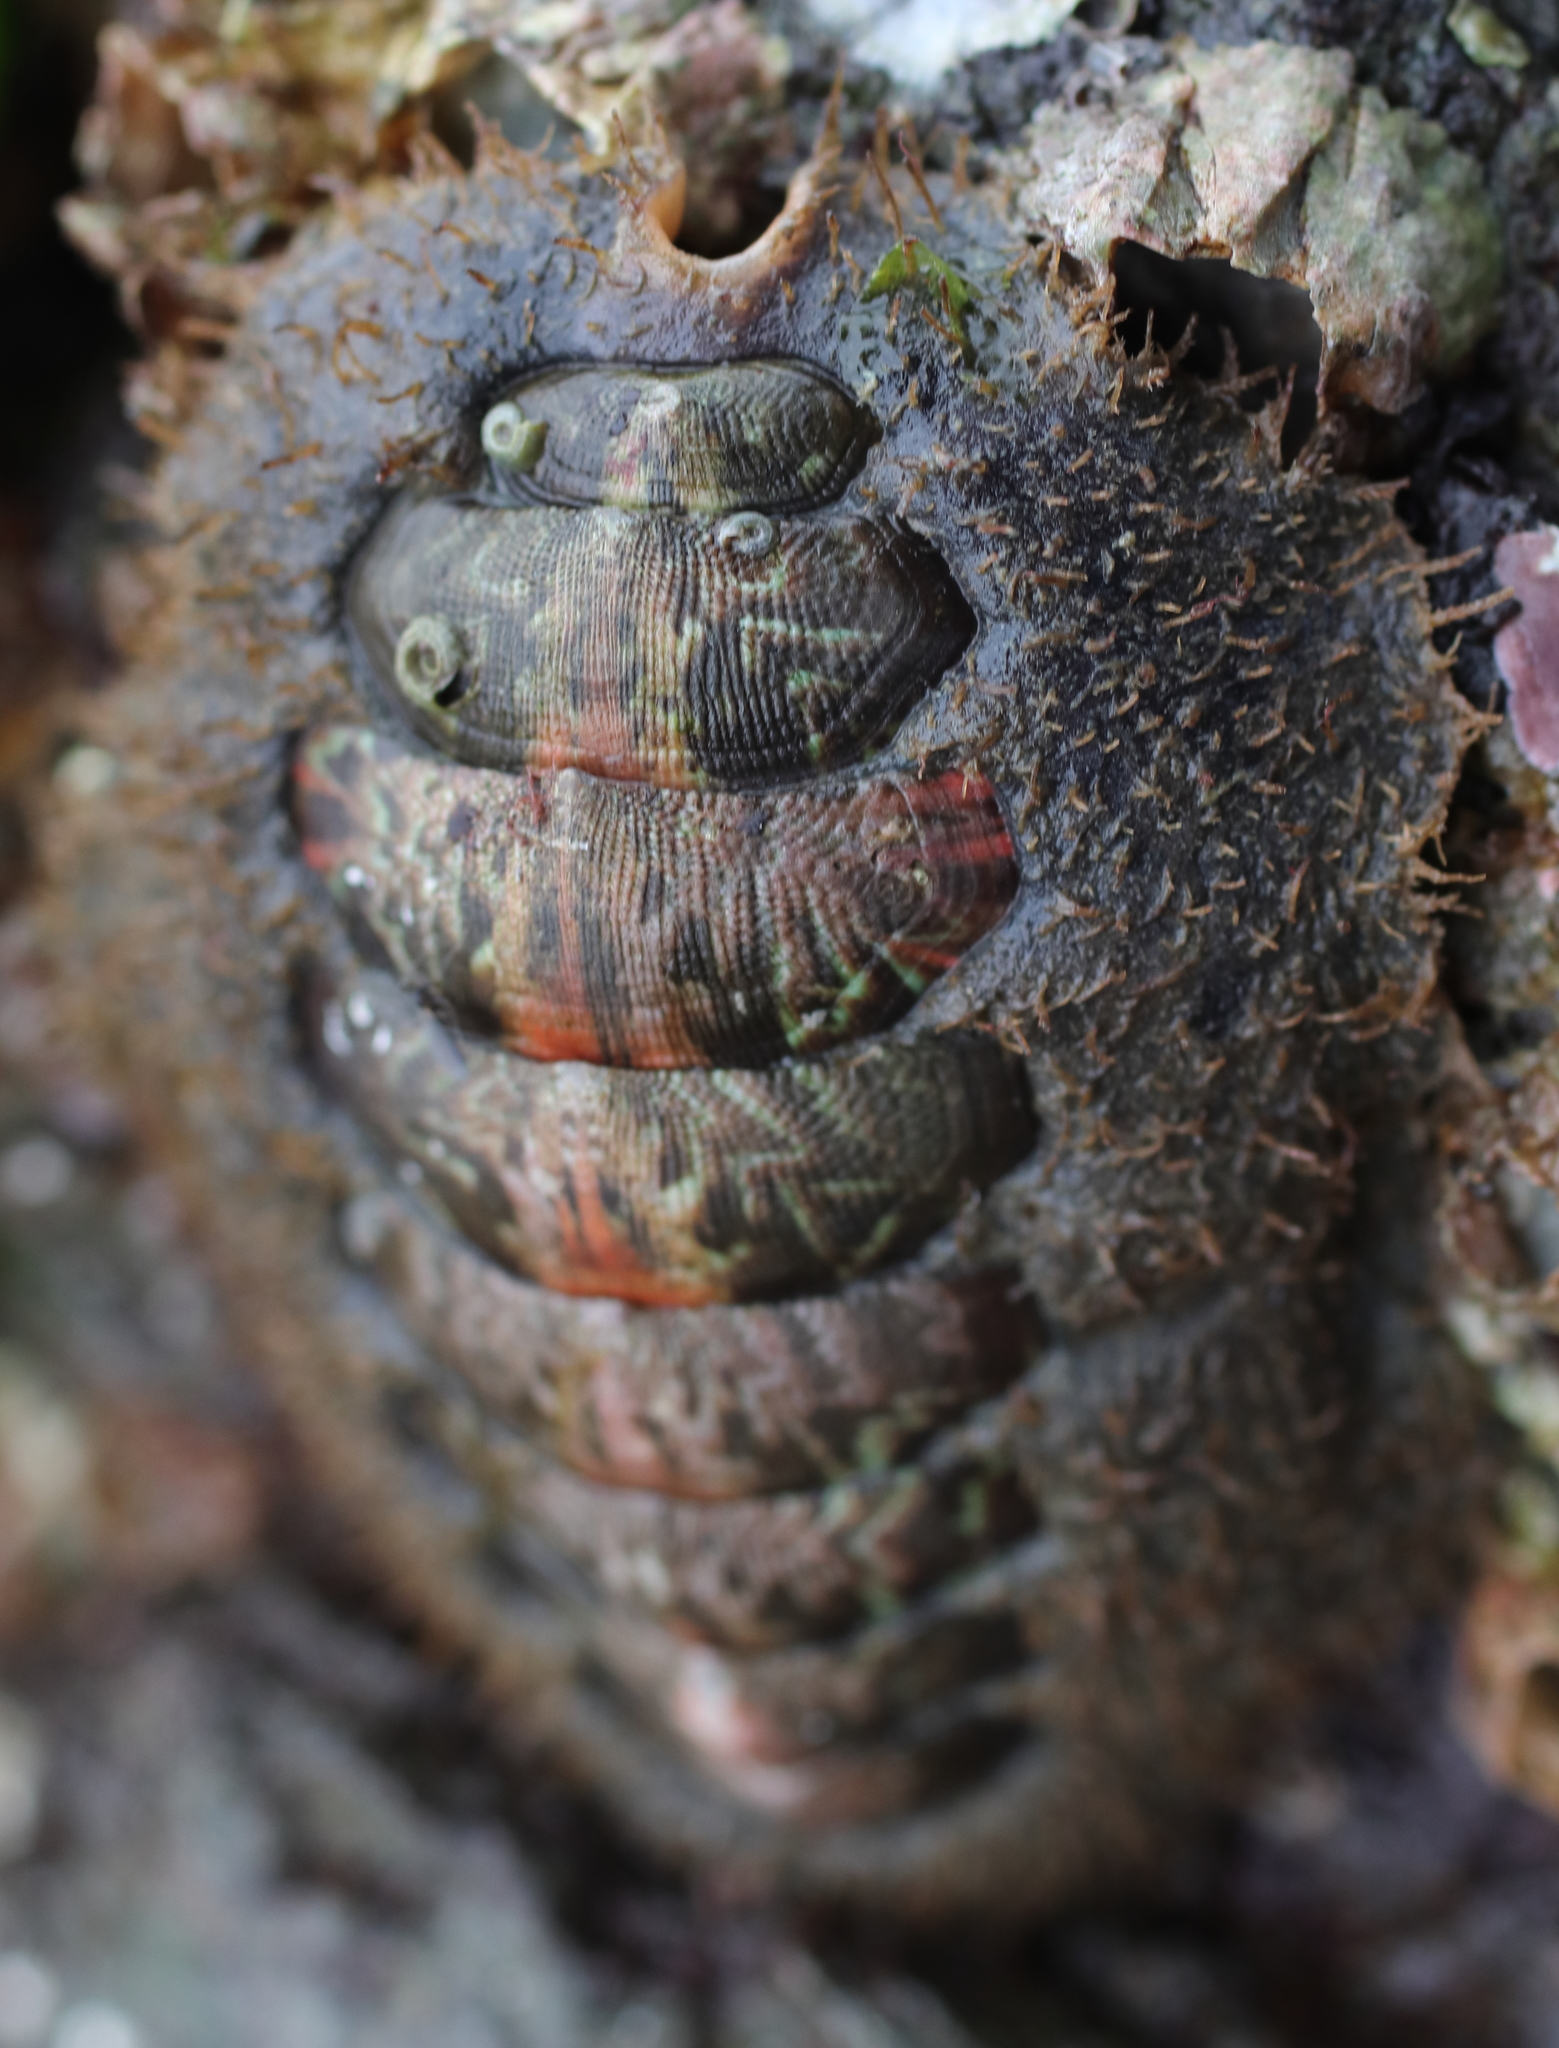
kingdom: Animalia
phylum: Mollusca
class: Polyplacophora
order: Chitonida
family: Mopaliidae
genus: Mopalia
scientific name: Mopalia ciliata
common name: Hairy chiton
